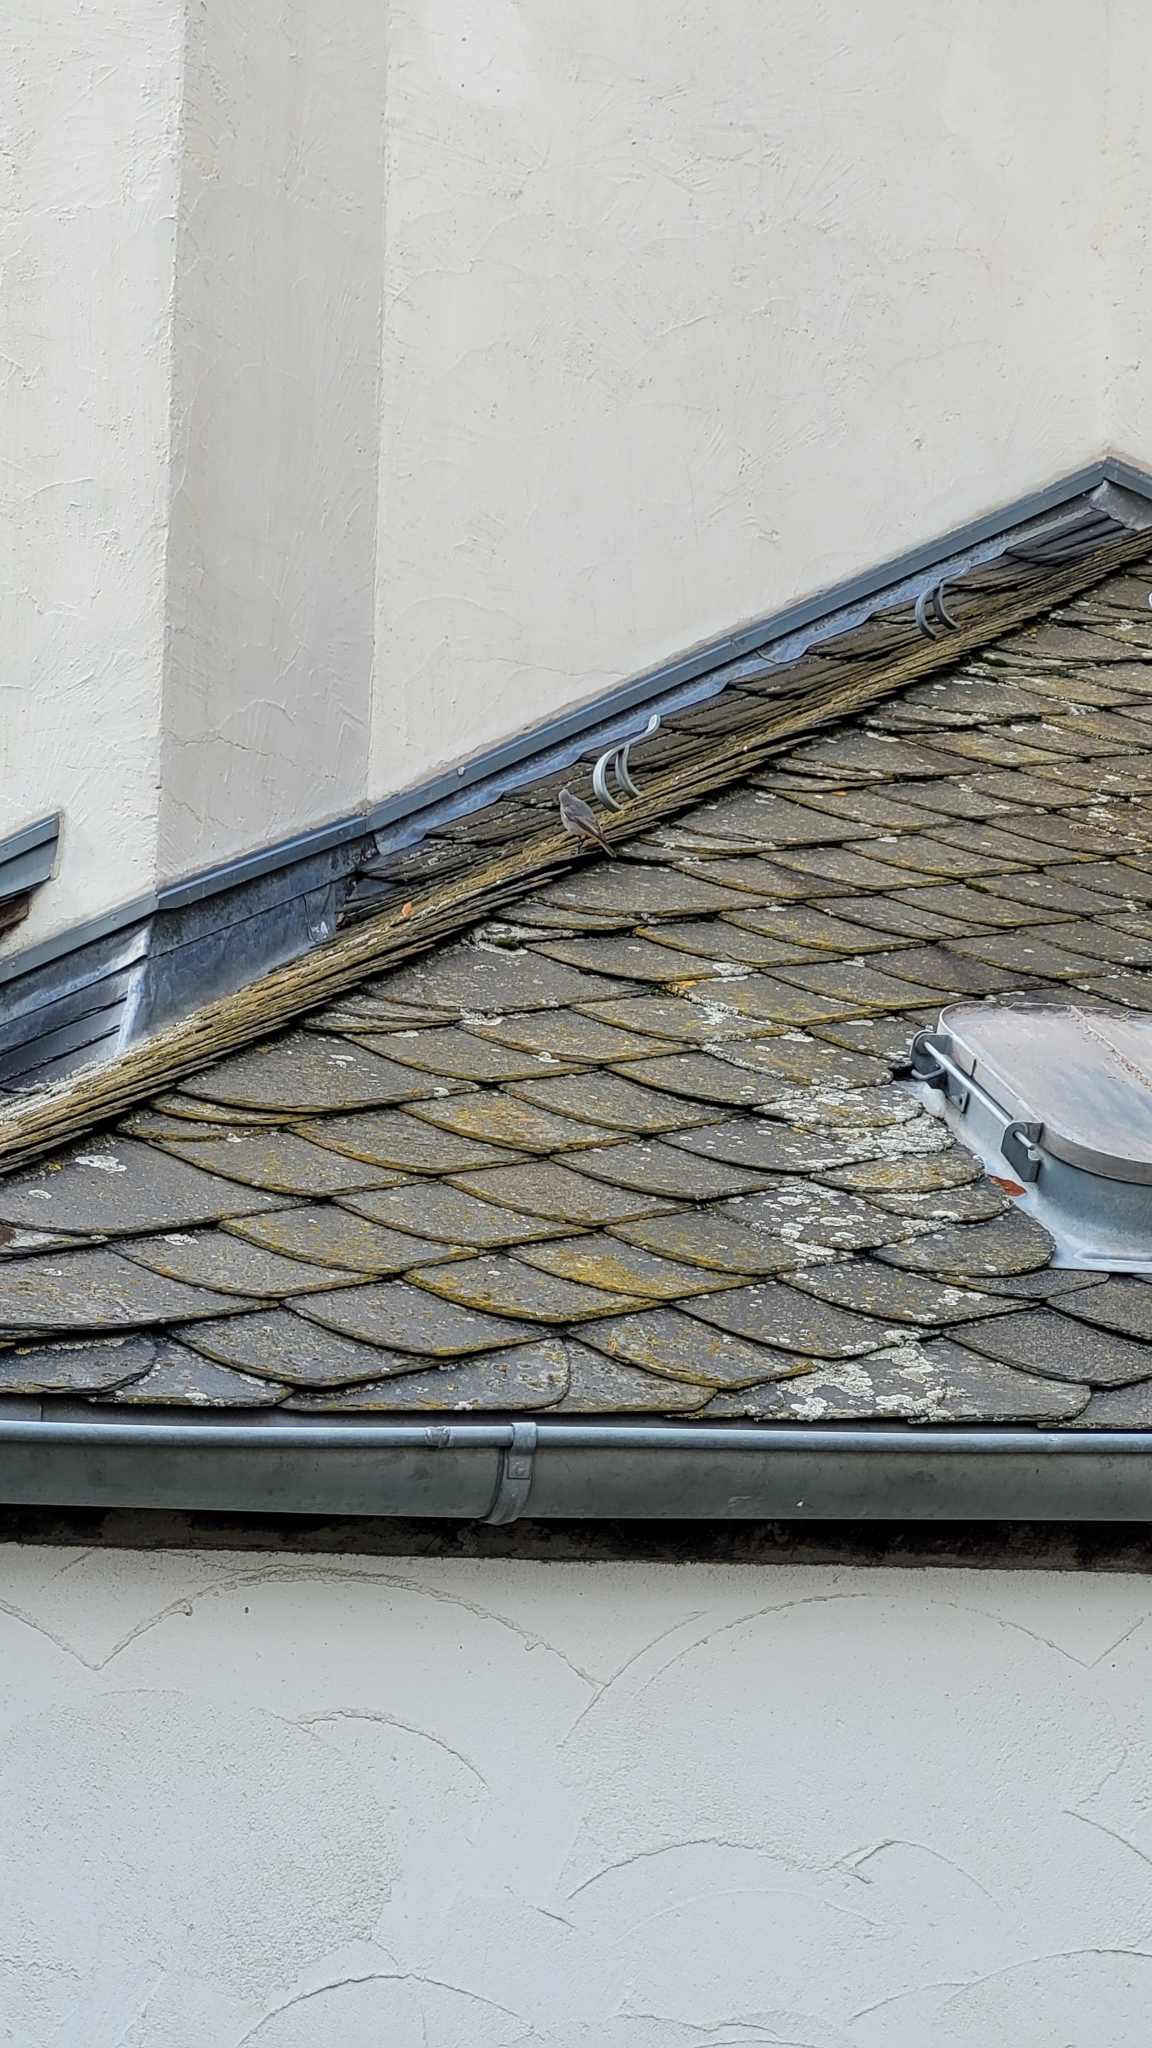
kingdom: Animalia
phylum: Chordata
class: Aves
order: Passeriformes
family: Muscicapidae
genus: Phoenicurus
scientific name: Phoenicurus ochruros
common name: Black redstart
